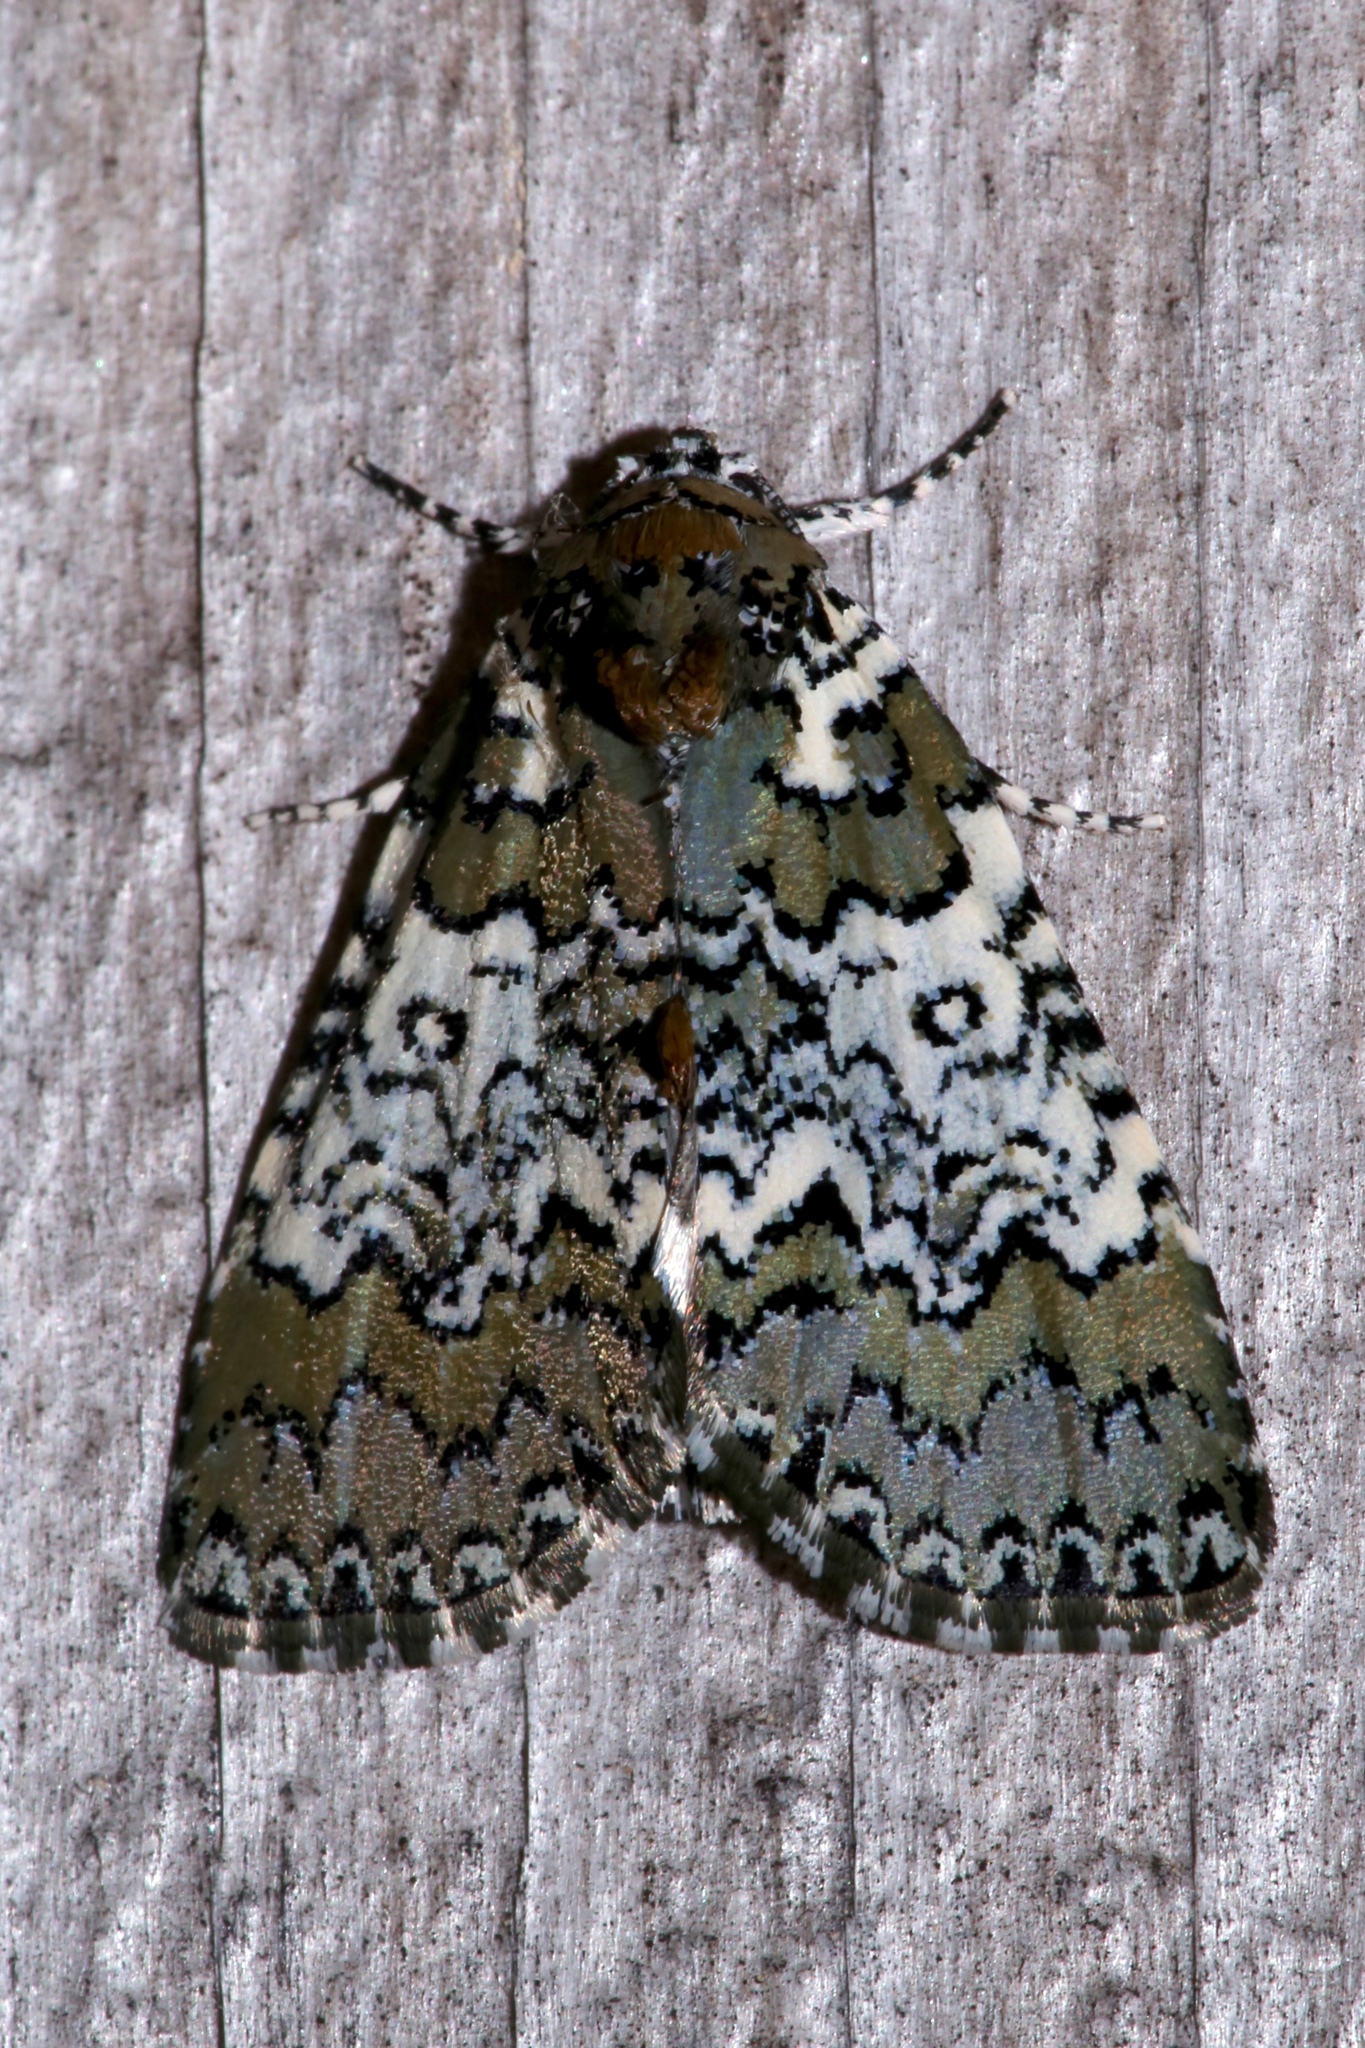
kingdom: Animalia
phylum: Arthropoda
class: Insecta
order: Lepidoptera
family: Noctuidae
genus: Cerma
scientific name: Cerma cora
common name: Bird dropping moth
